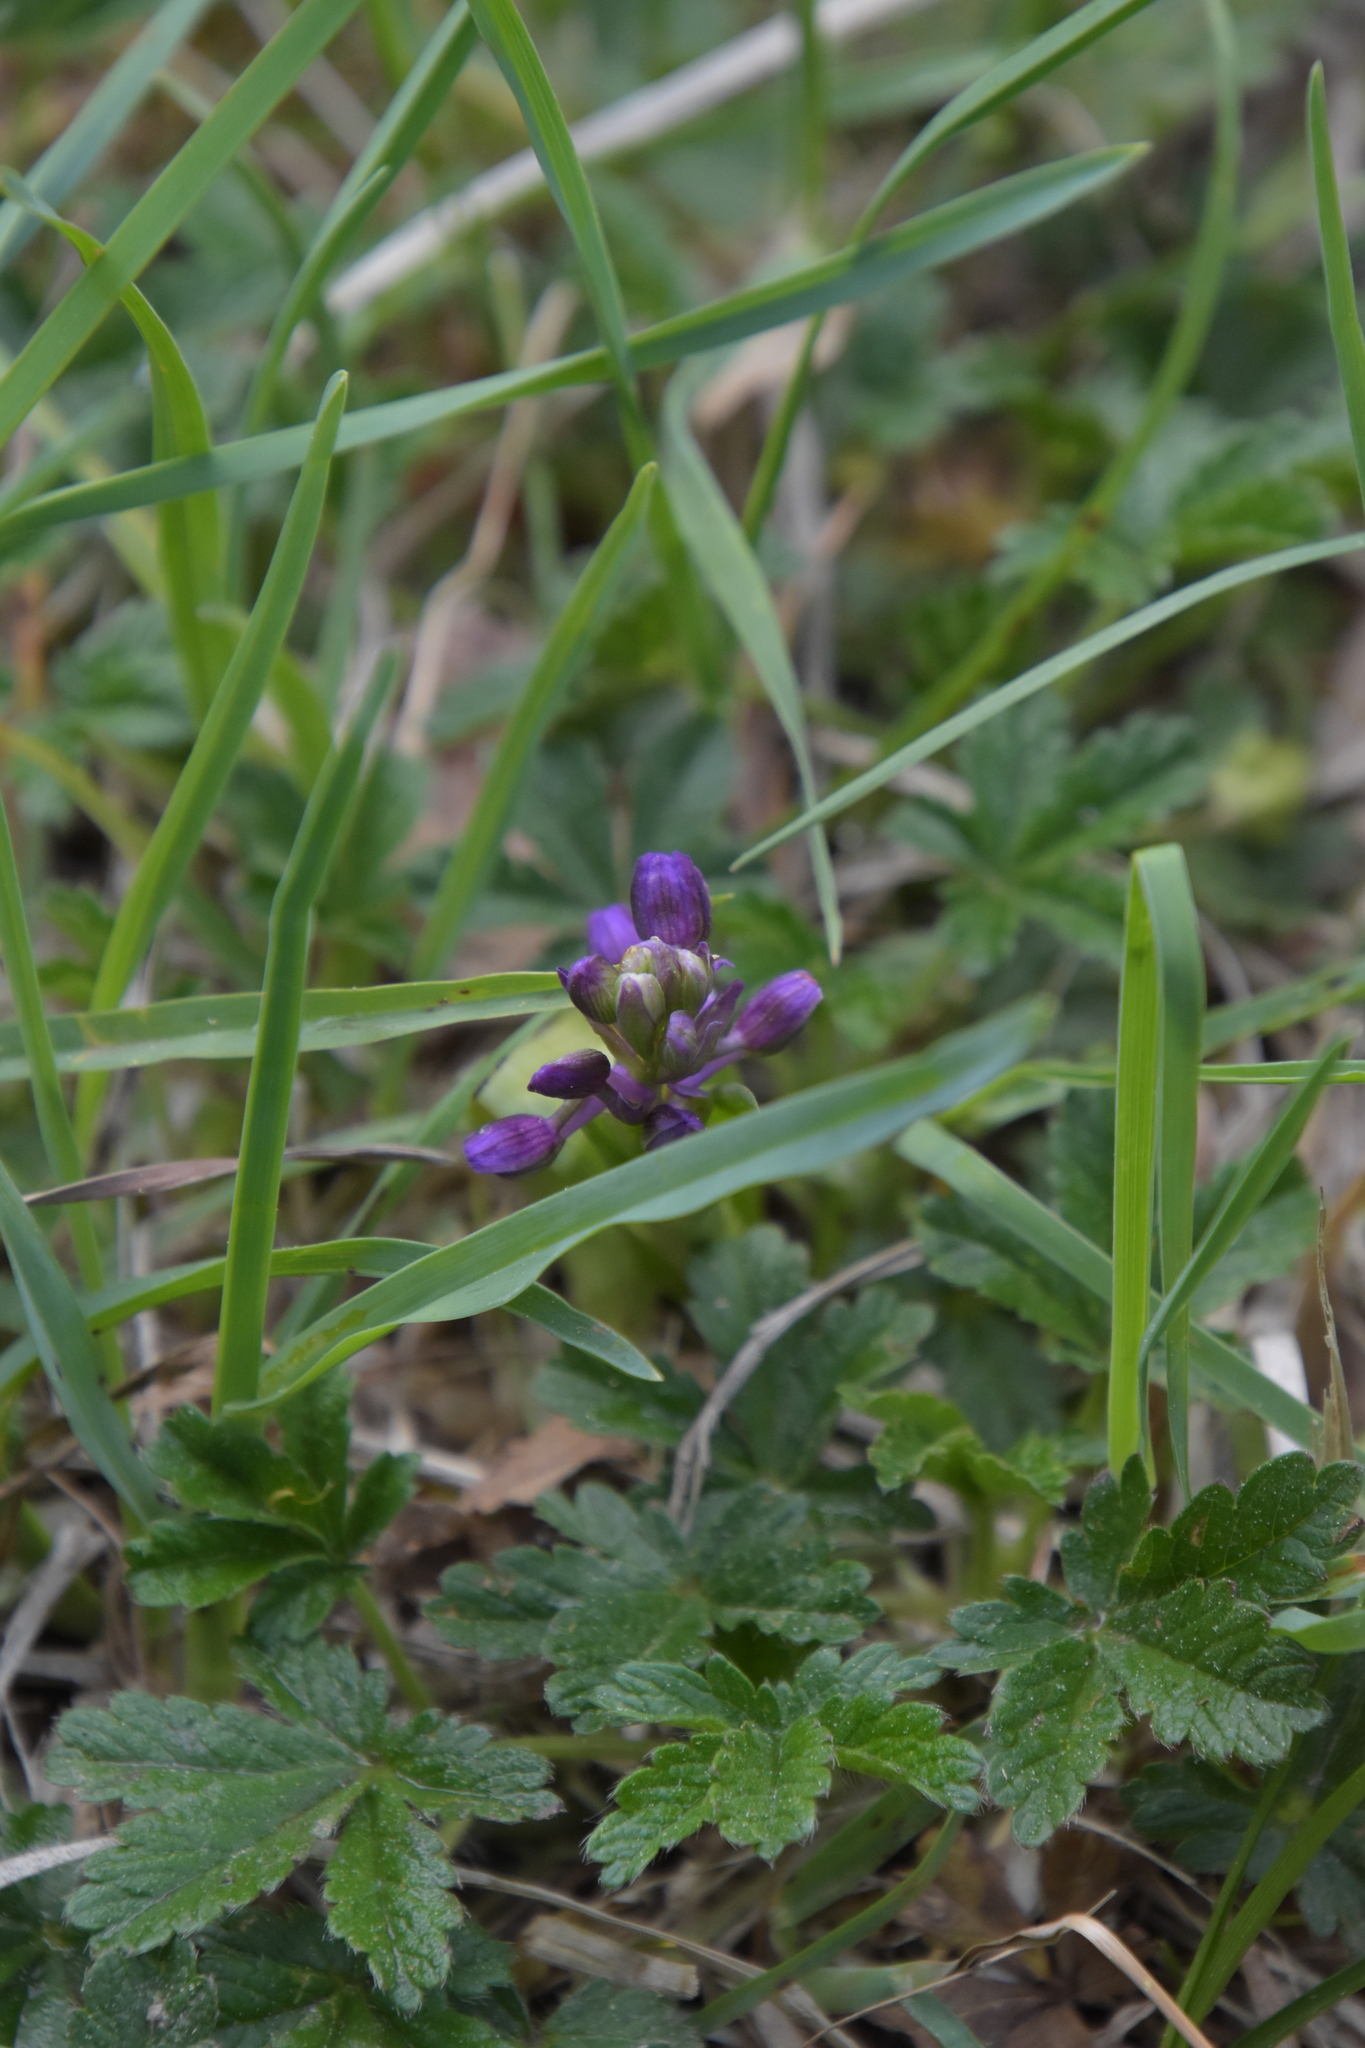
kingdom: Plantae
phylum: Tracheophyta
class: Liliopsida
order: Asparagales
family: Orchidaceae
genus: Anacamptis
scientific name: Anacamptis morio
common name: Green-winged orchid
